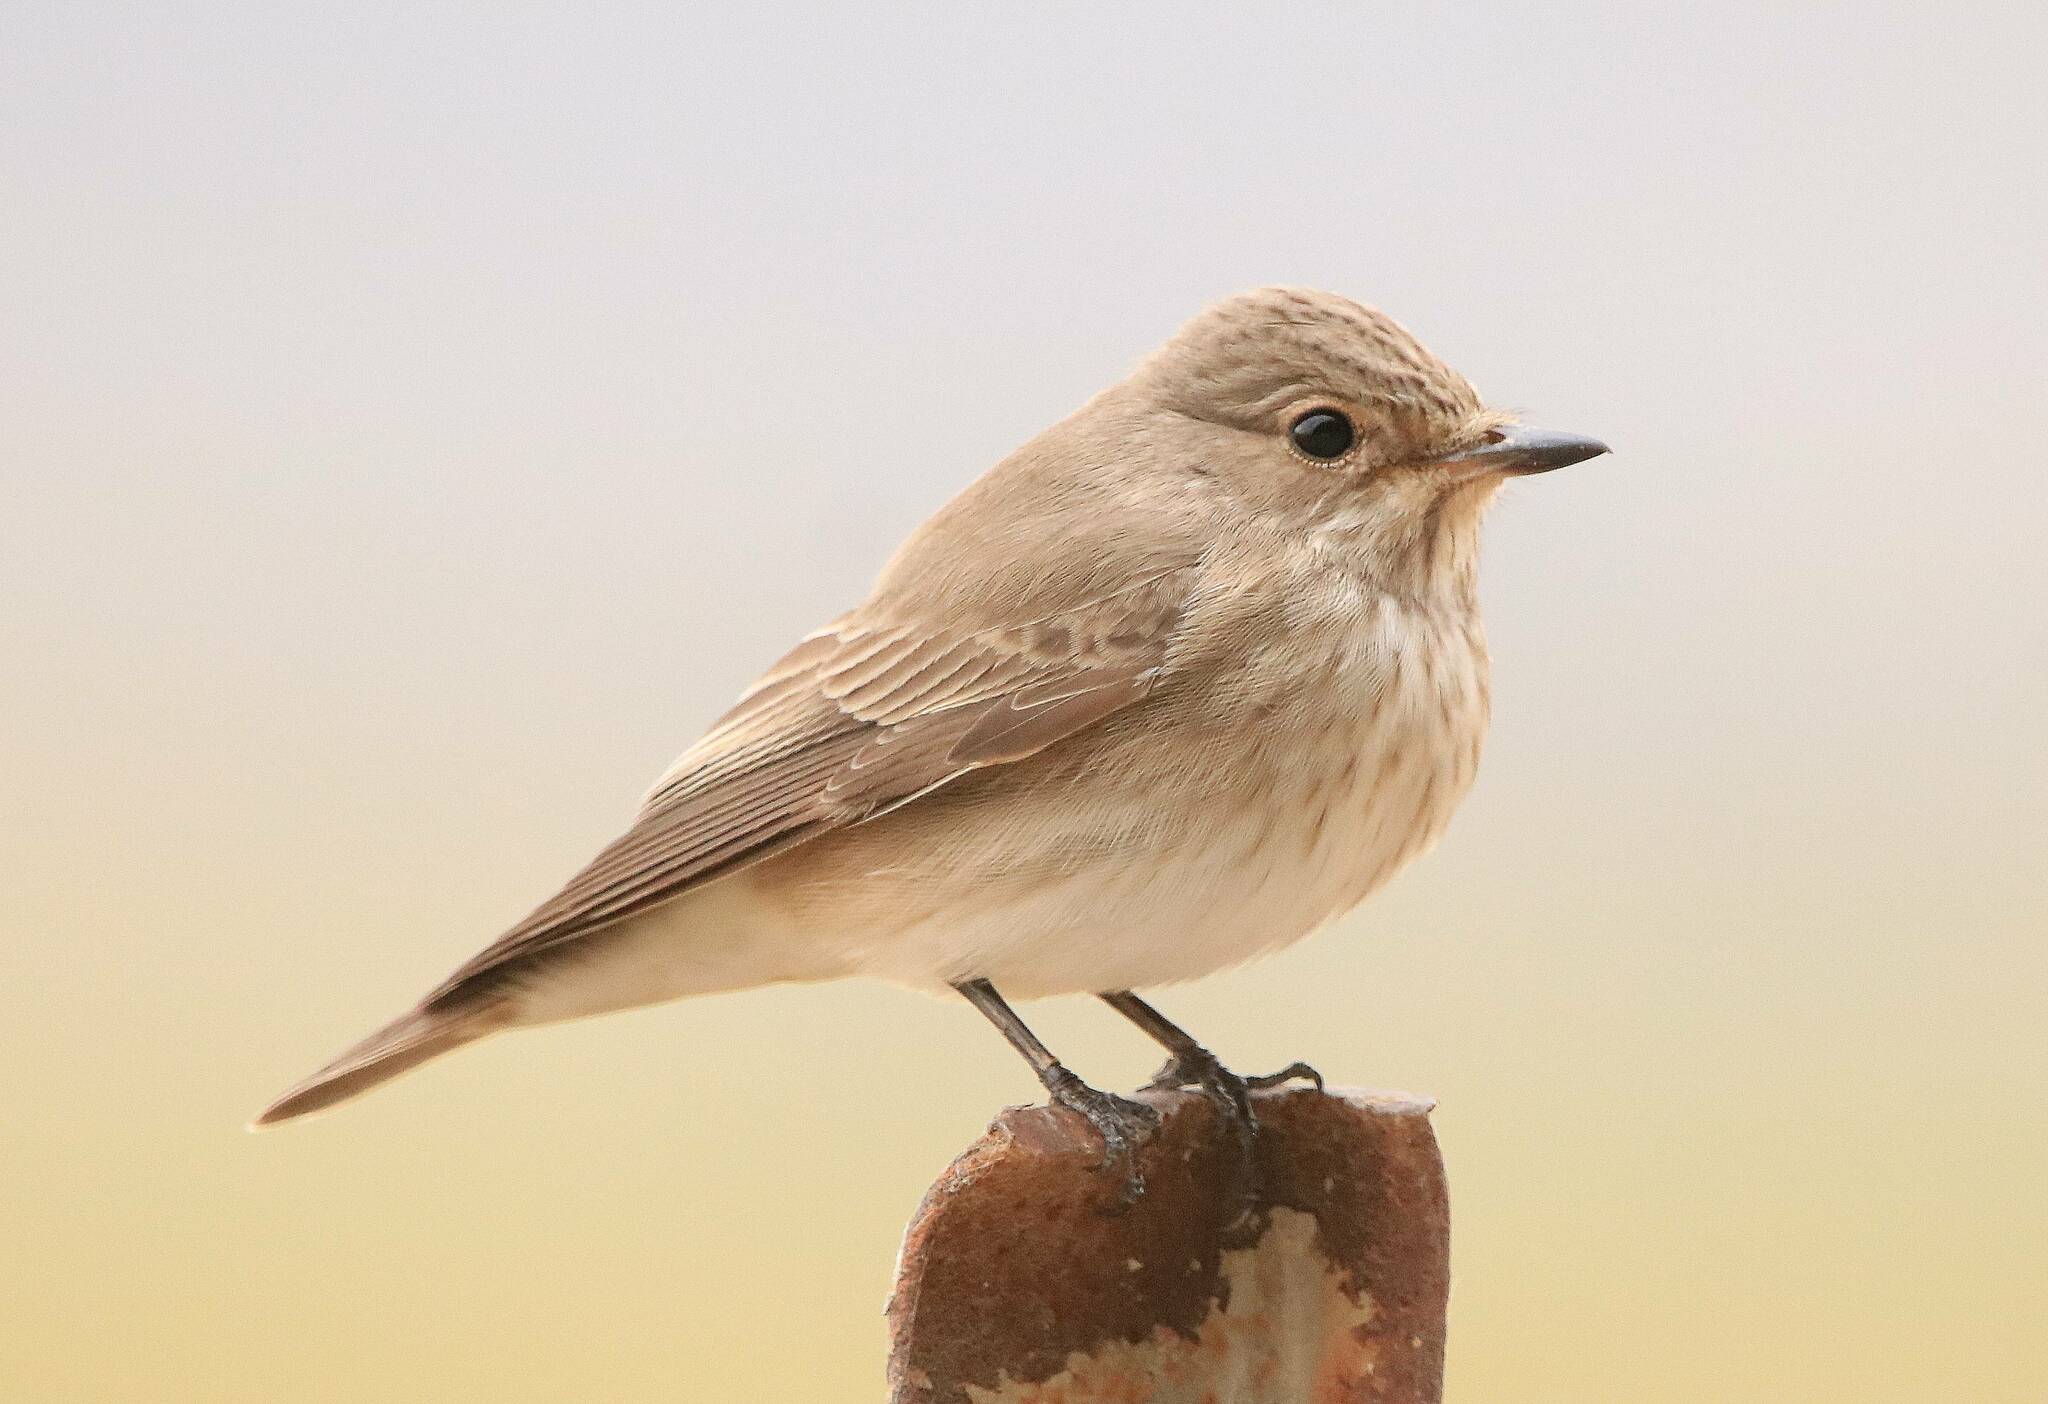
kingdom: Animalia
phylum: Chordata
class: Aves
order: Passeriformes
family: Muscicapidae
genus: Muscicapa
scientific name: Muscicapa striata
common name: Spotted flycatcher
